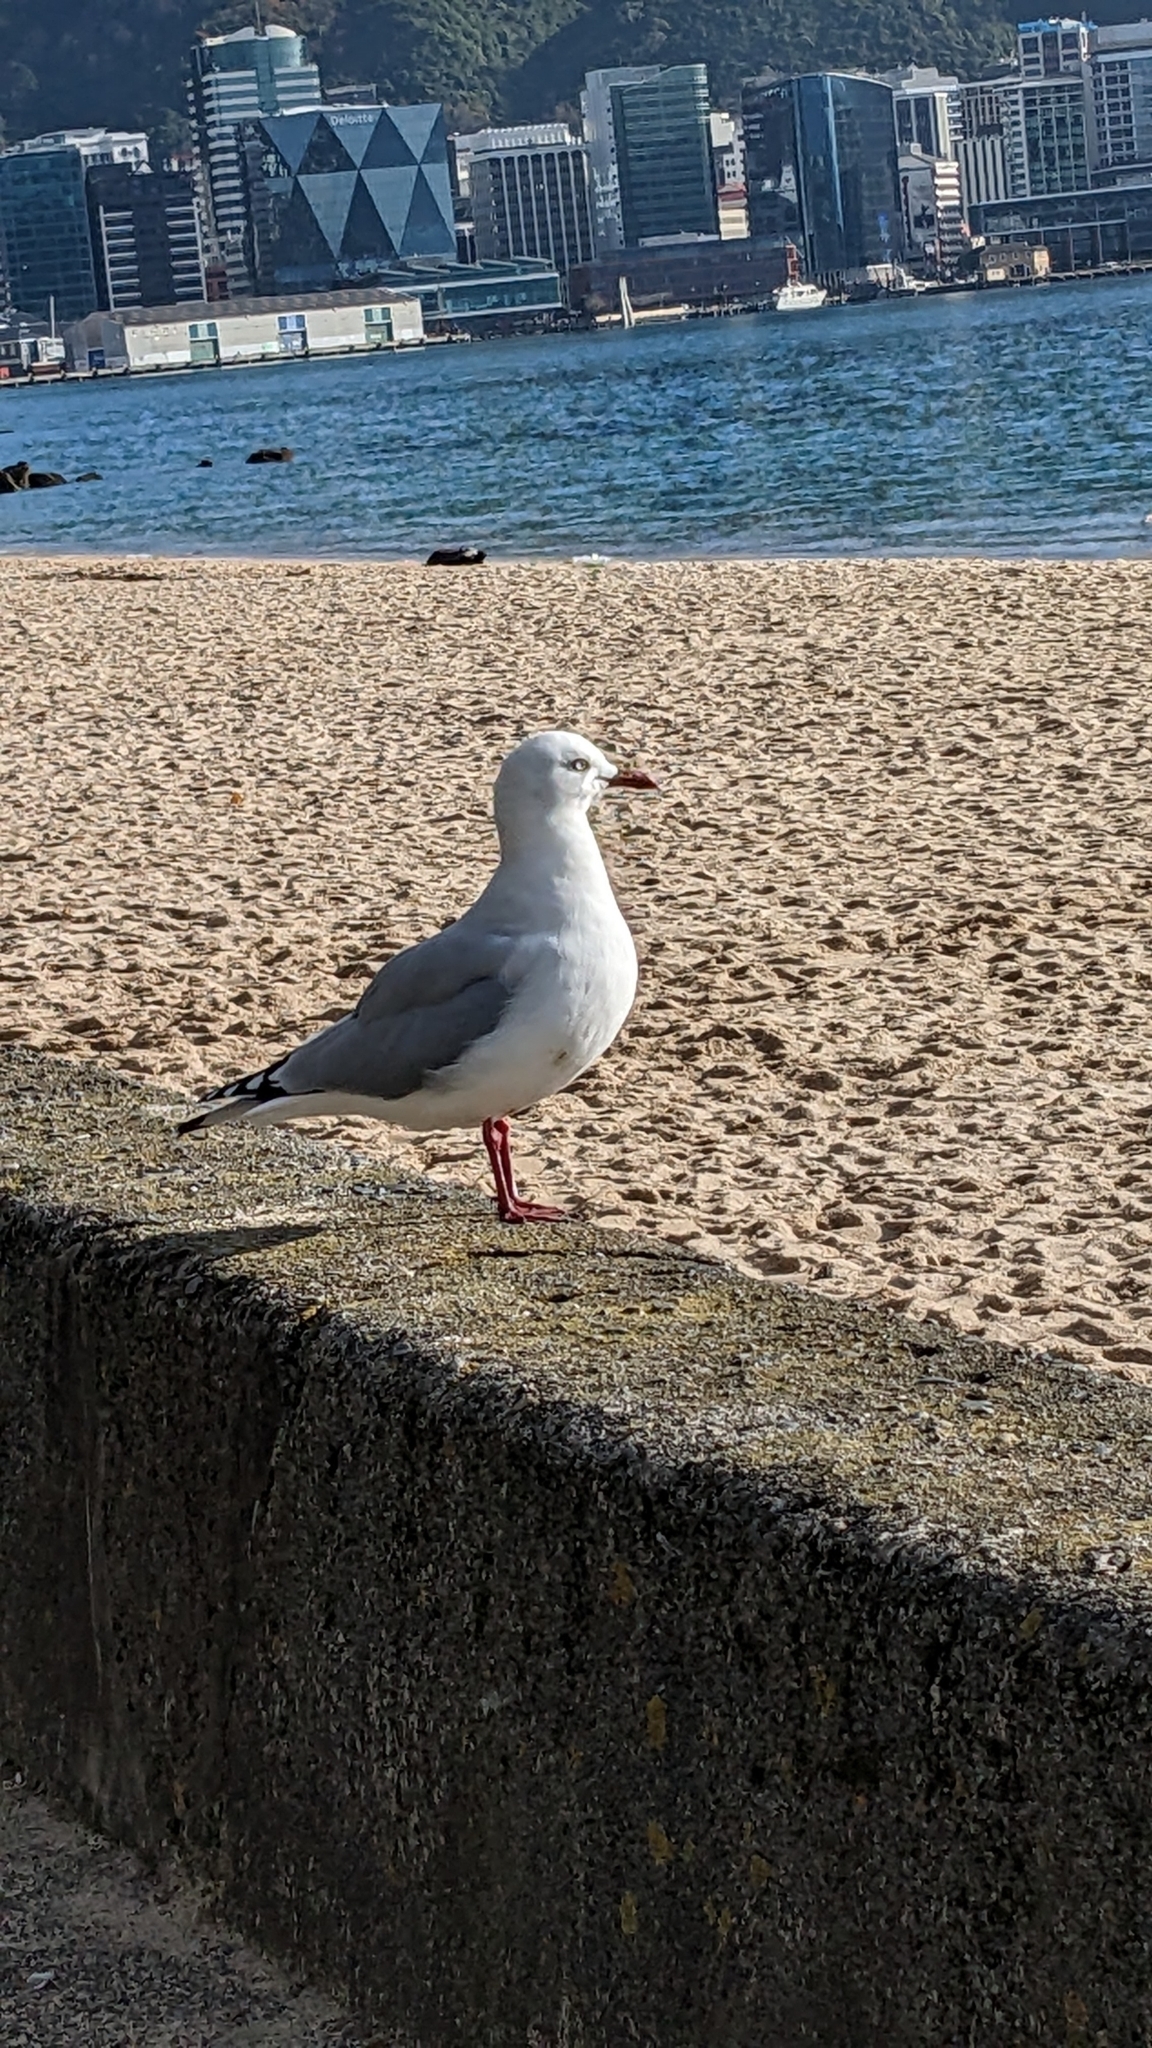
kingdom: Animalia
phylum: Chordata
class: Aves
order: Charadriiformes
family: Laridae
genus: Chroicocephalus
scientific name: Chroicocephalus novaehollandiae
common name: Silver gull
